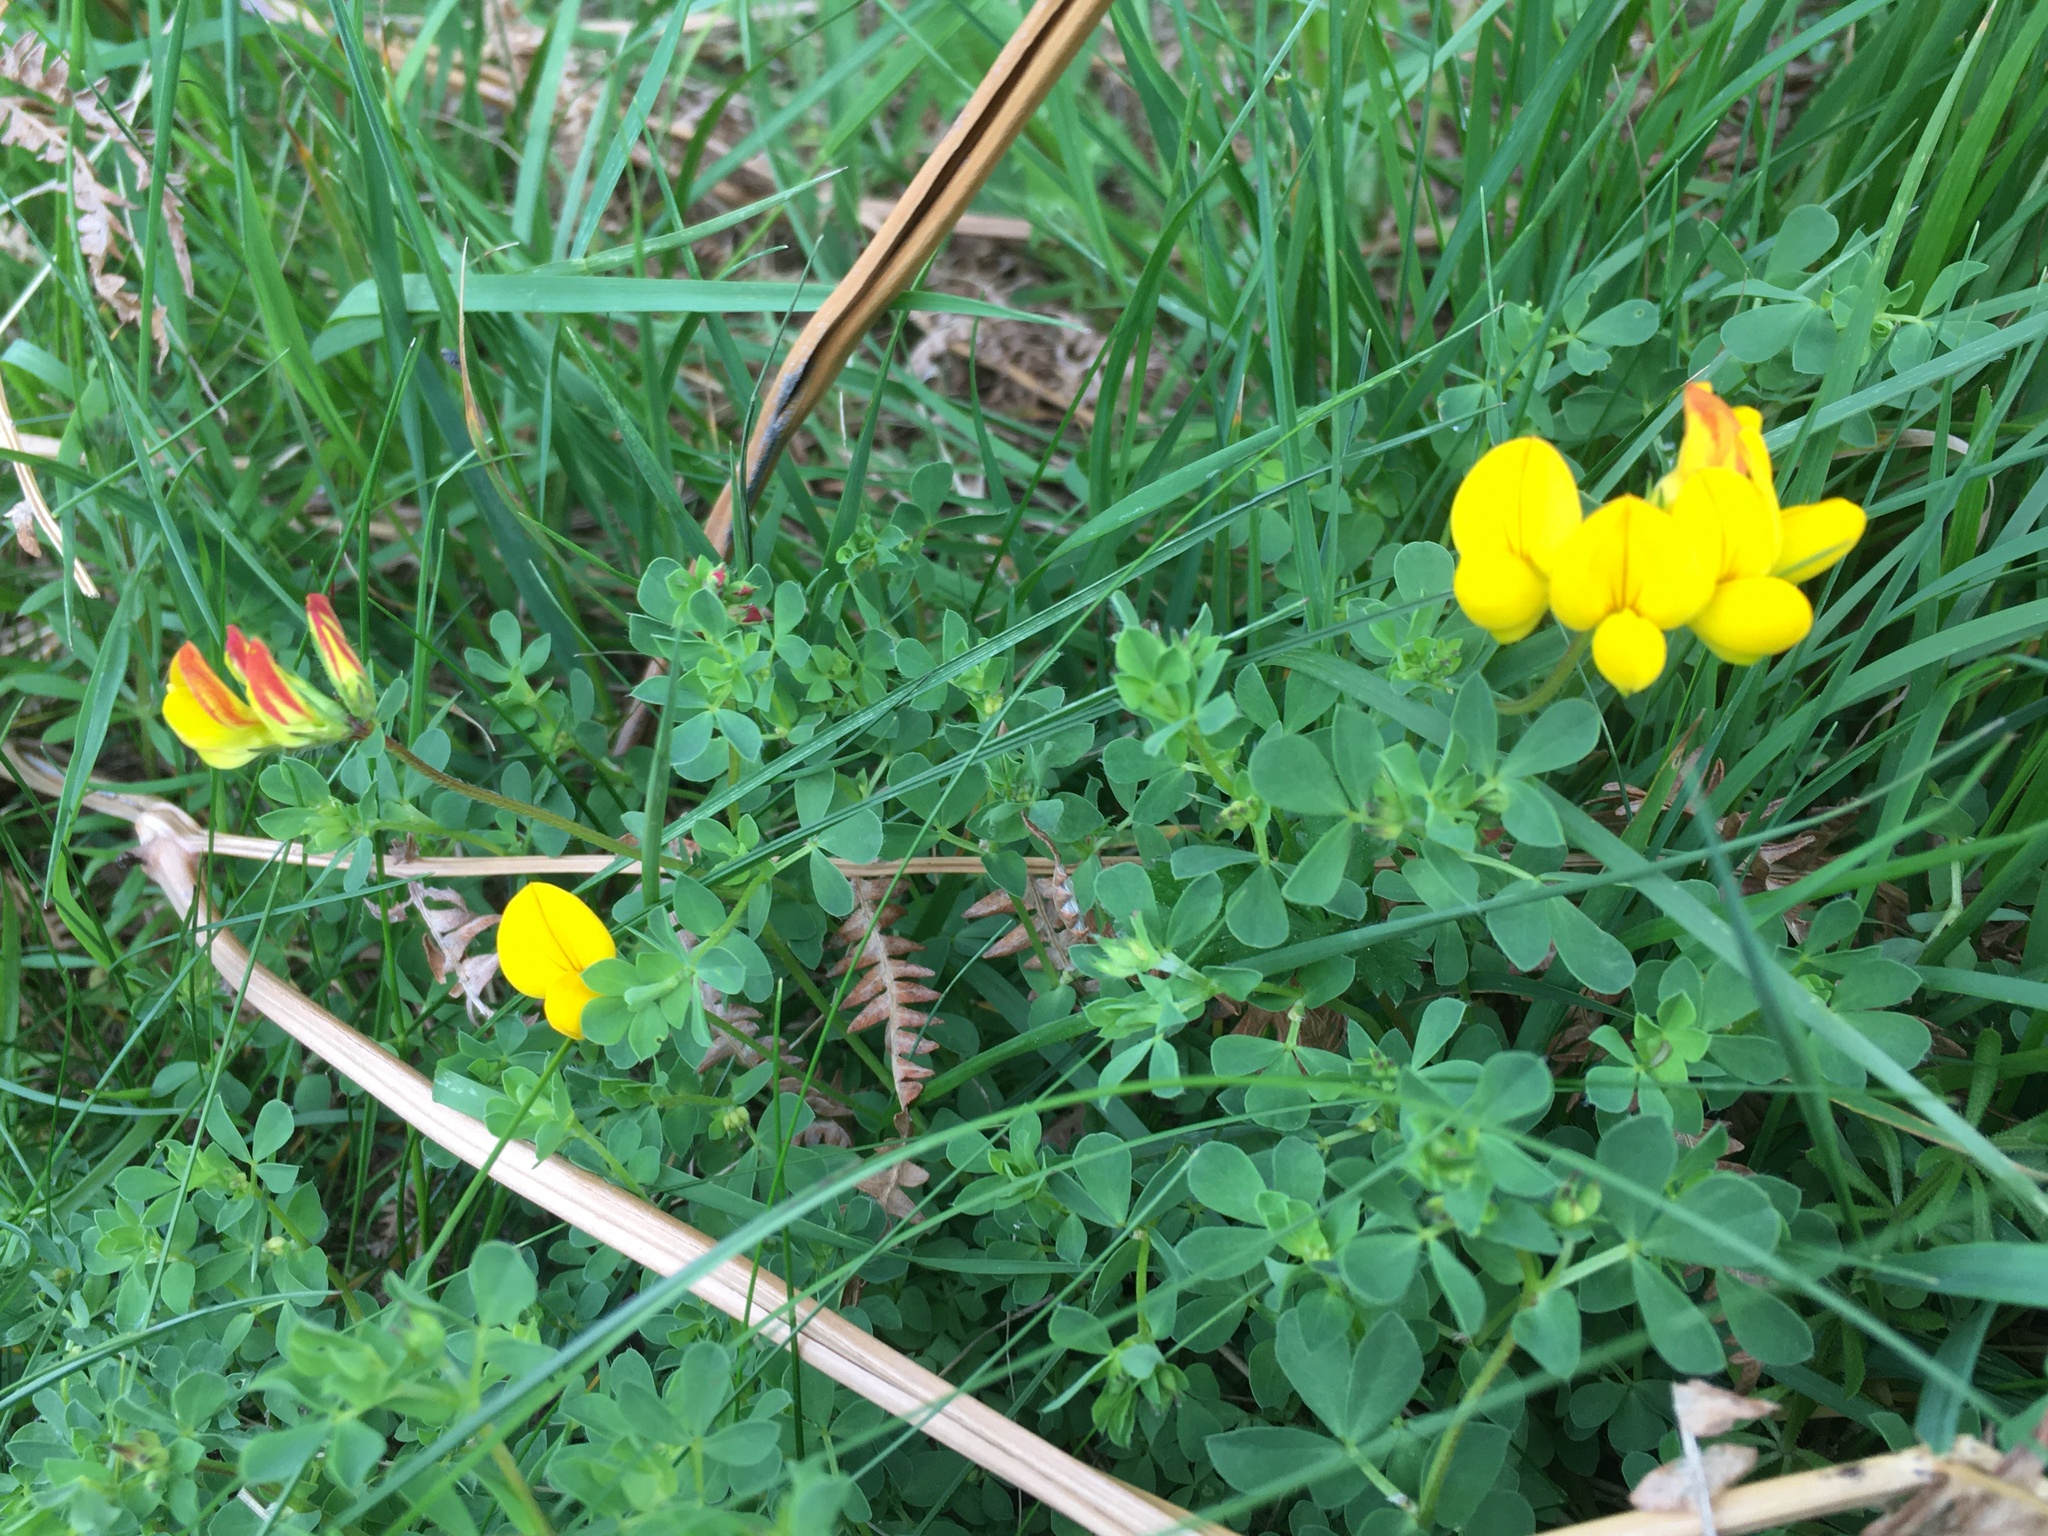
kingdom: Plantae
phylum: Tracheophyta
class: Magnoliopsida
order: Fabales
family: Fabaceae
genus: Lotus
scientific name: Lotus corniculatus
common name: Common bird's-foot-trefoil
